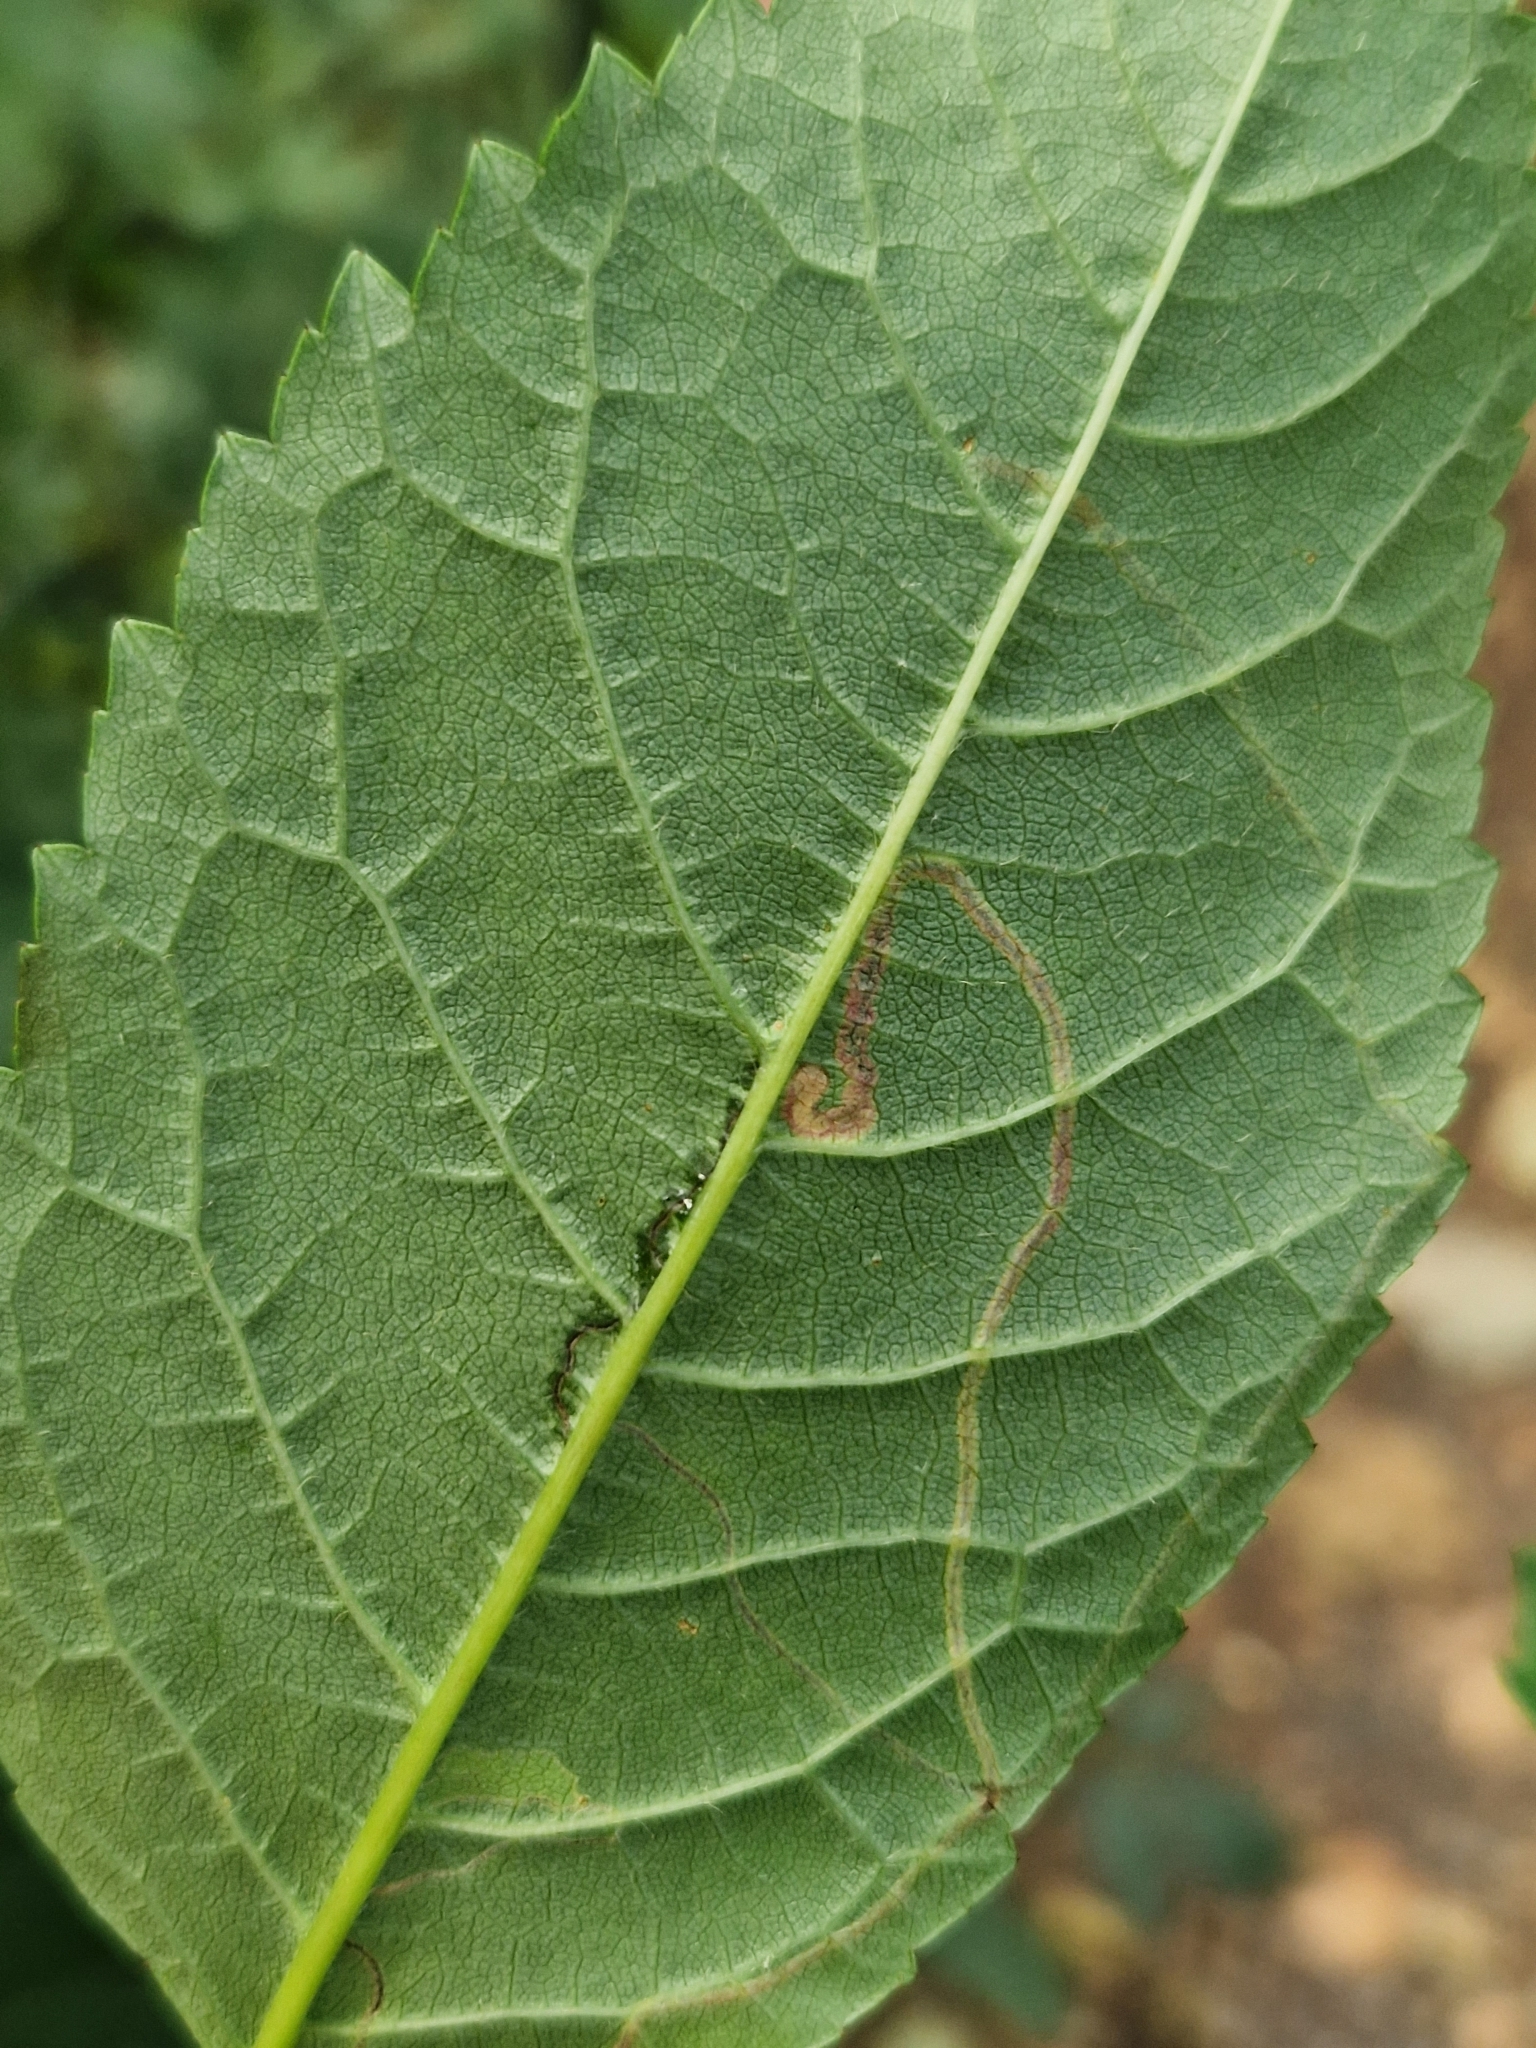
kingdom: Animalia
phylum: Arthropoda
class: Insecta
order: Lepidoptera
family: Lyonetiidae
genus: Lyonetia
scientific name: Lyonetia clerkella
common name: Apple leaf miner
